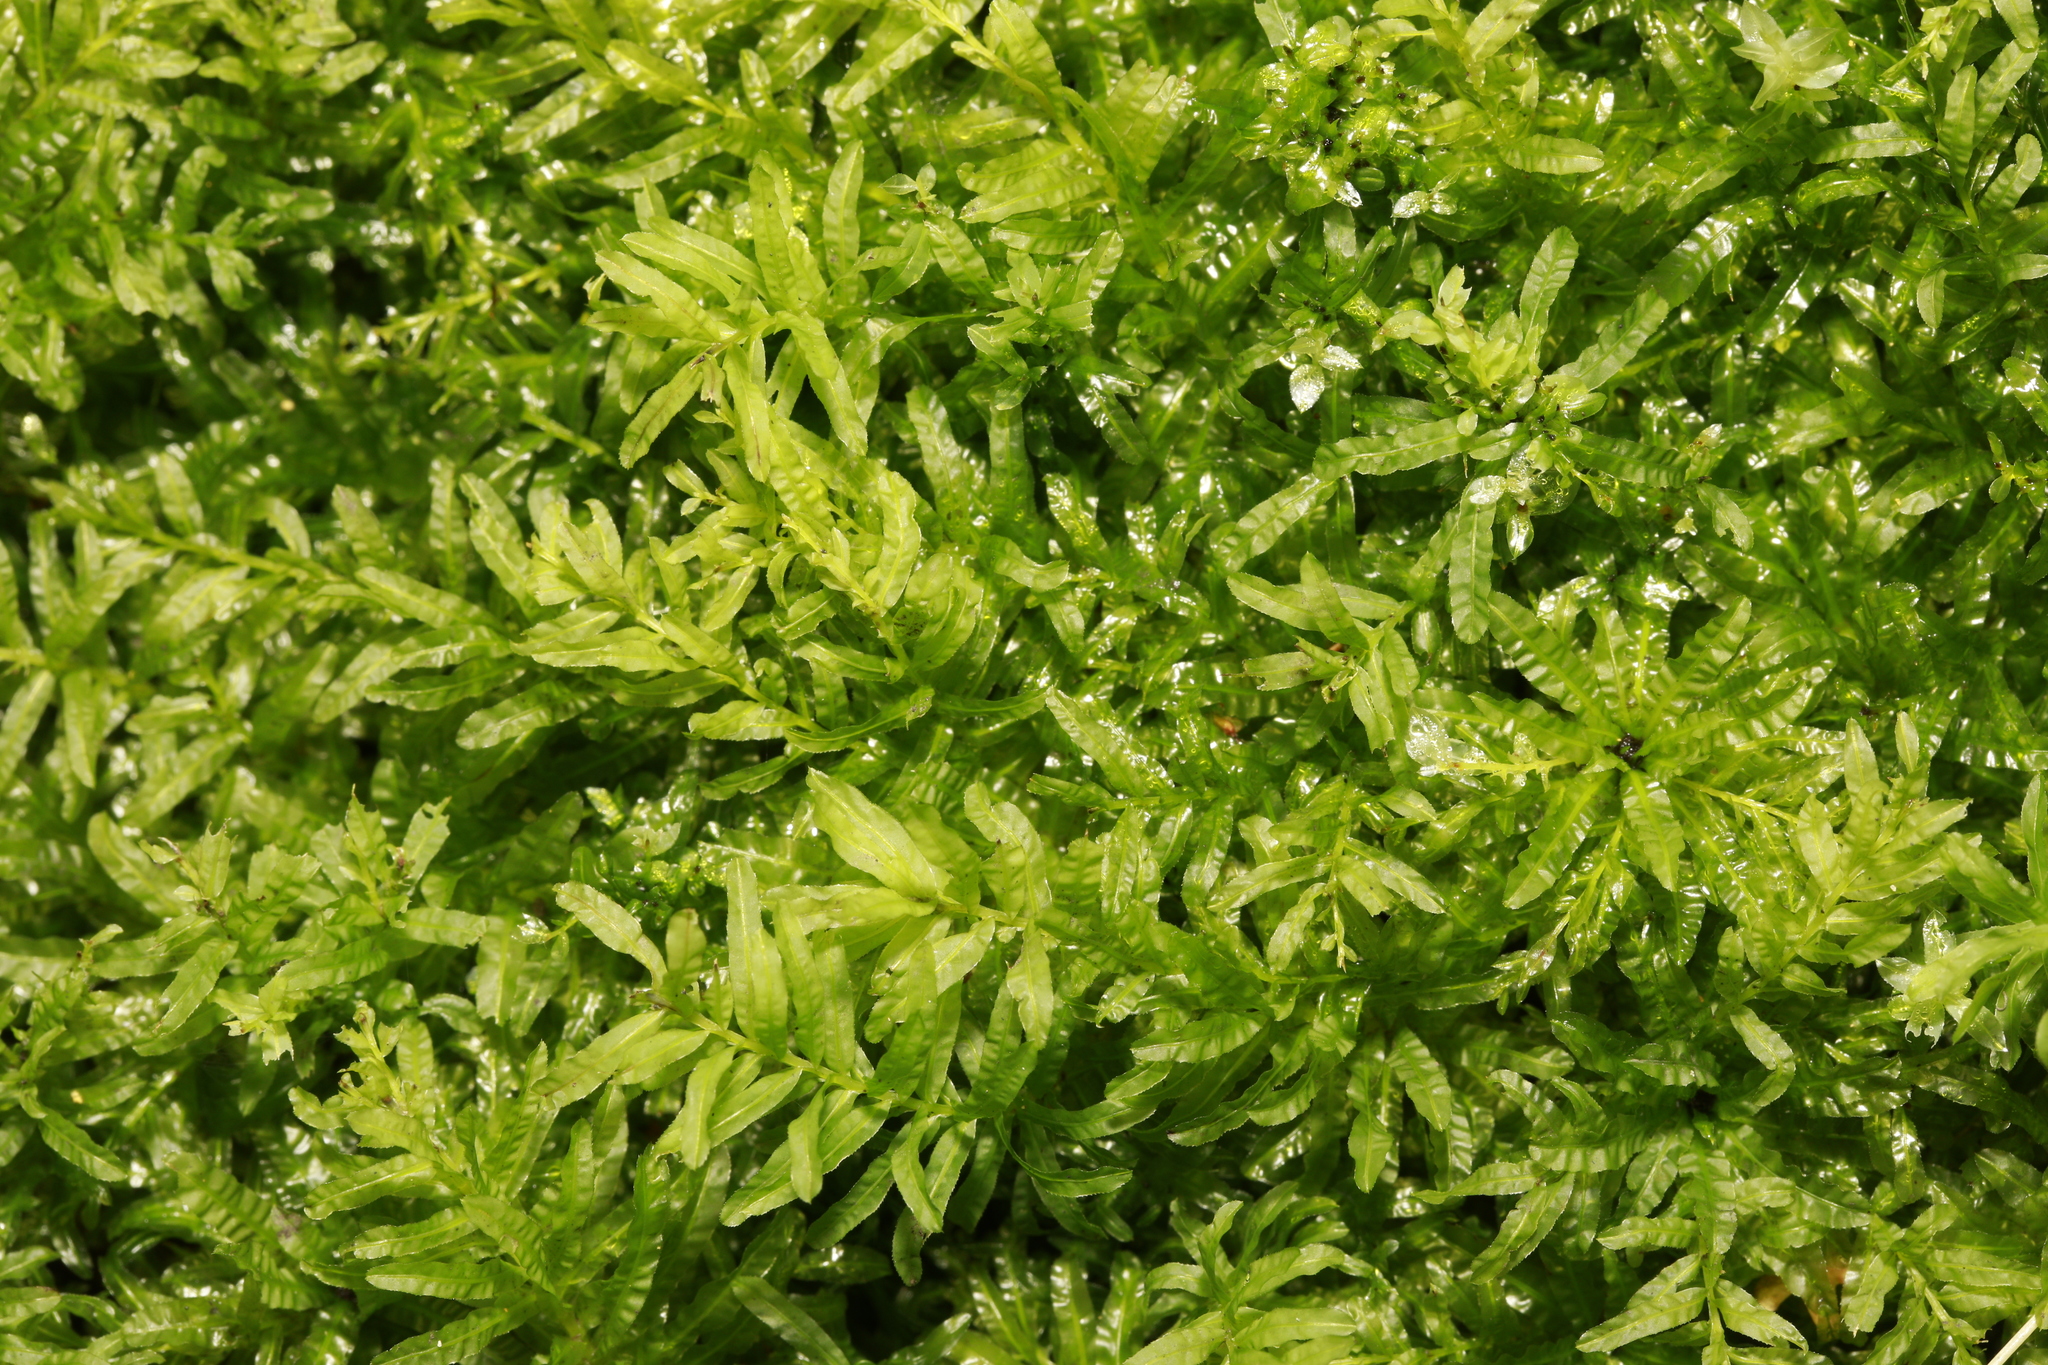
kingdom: Plantae
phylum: Bryophyta
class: Bryopsida
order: Bryales
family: Mniaceae
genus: Plagiomnium
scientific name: Plagiomnium undulatum
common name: Hart's-tongue thyme-moss
